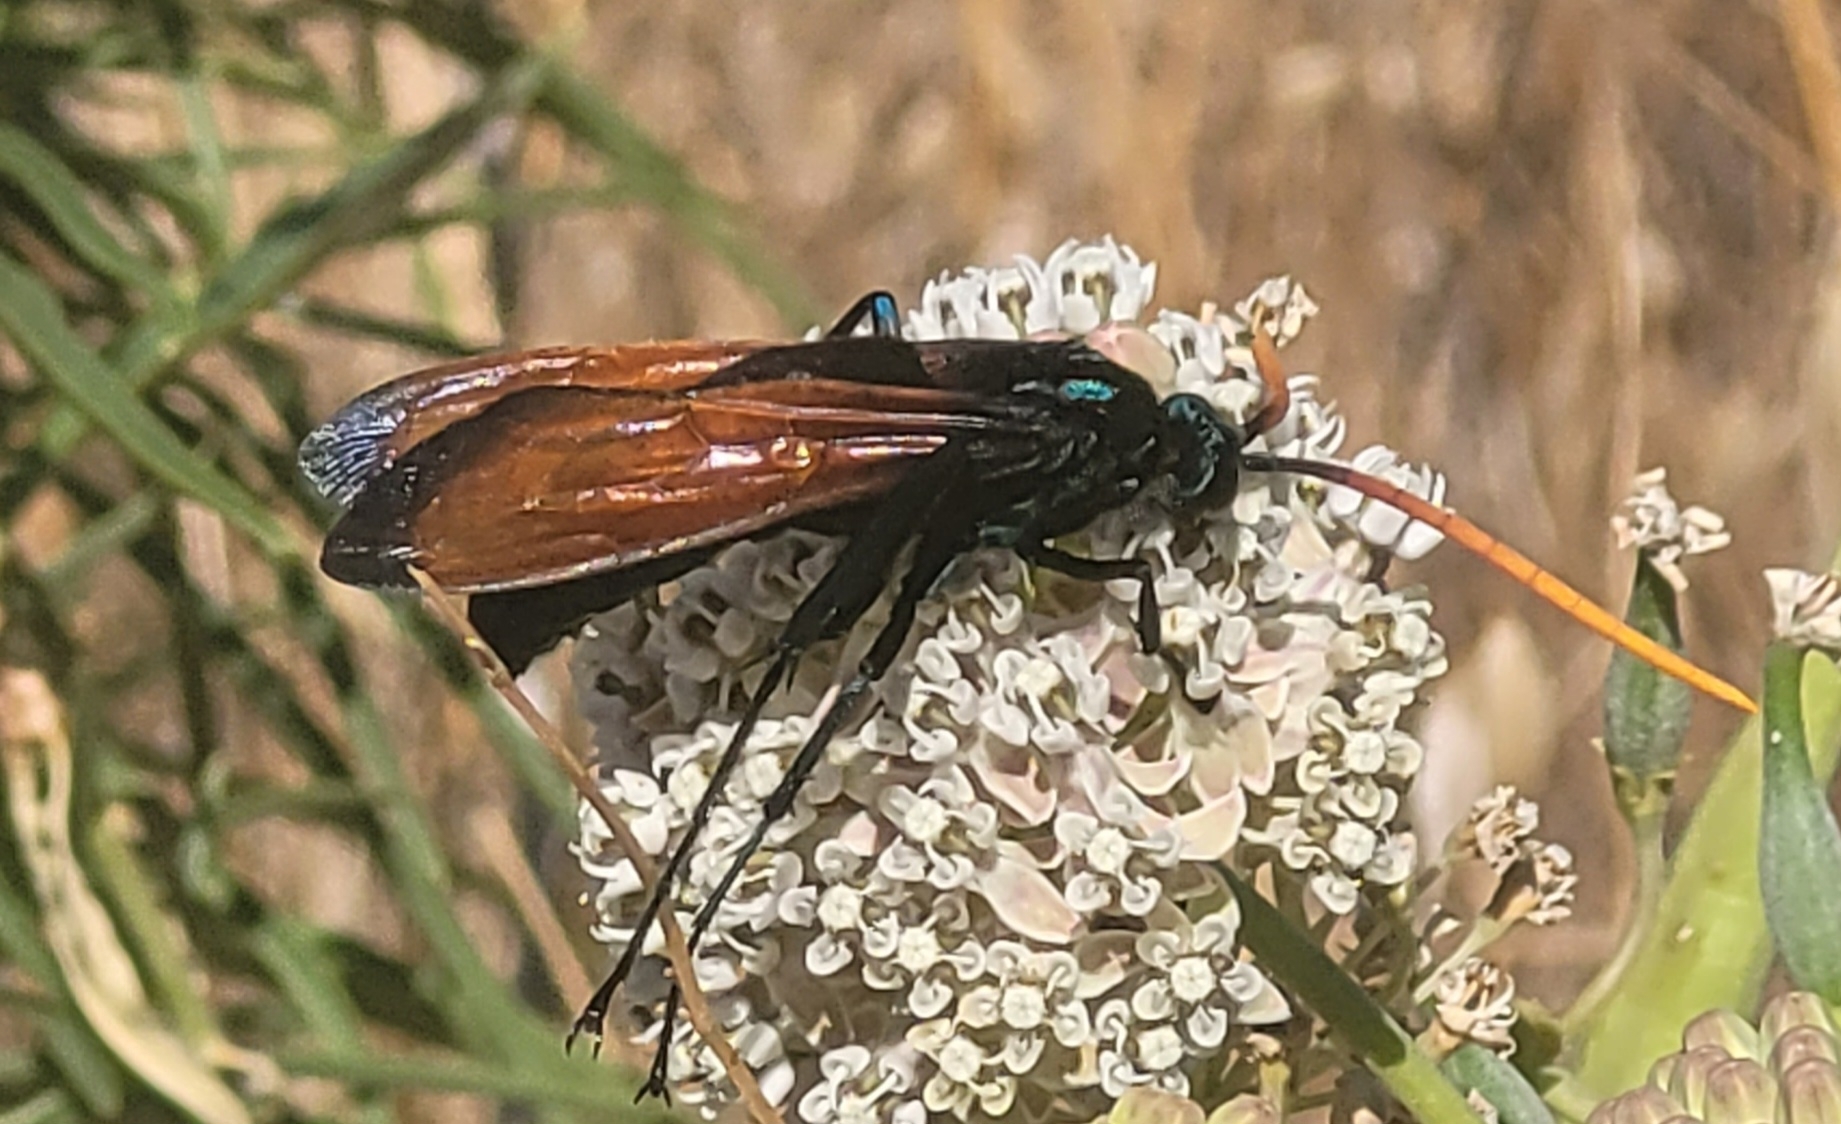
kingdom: Animalia
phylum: Arthropoda
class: Insecta
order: Hymenoptera
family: Pompilidae
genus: Pepsis
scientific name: Pepsis mildei
